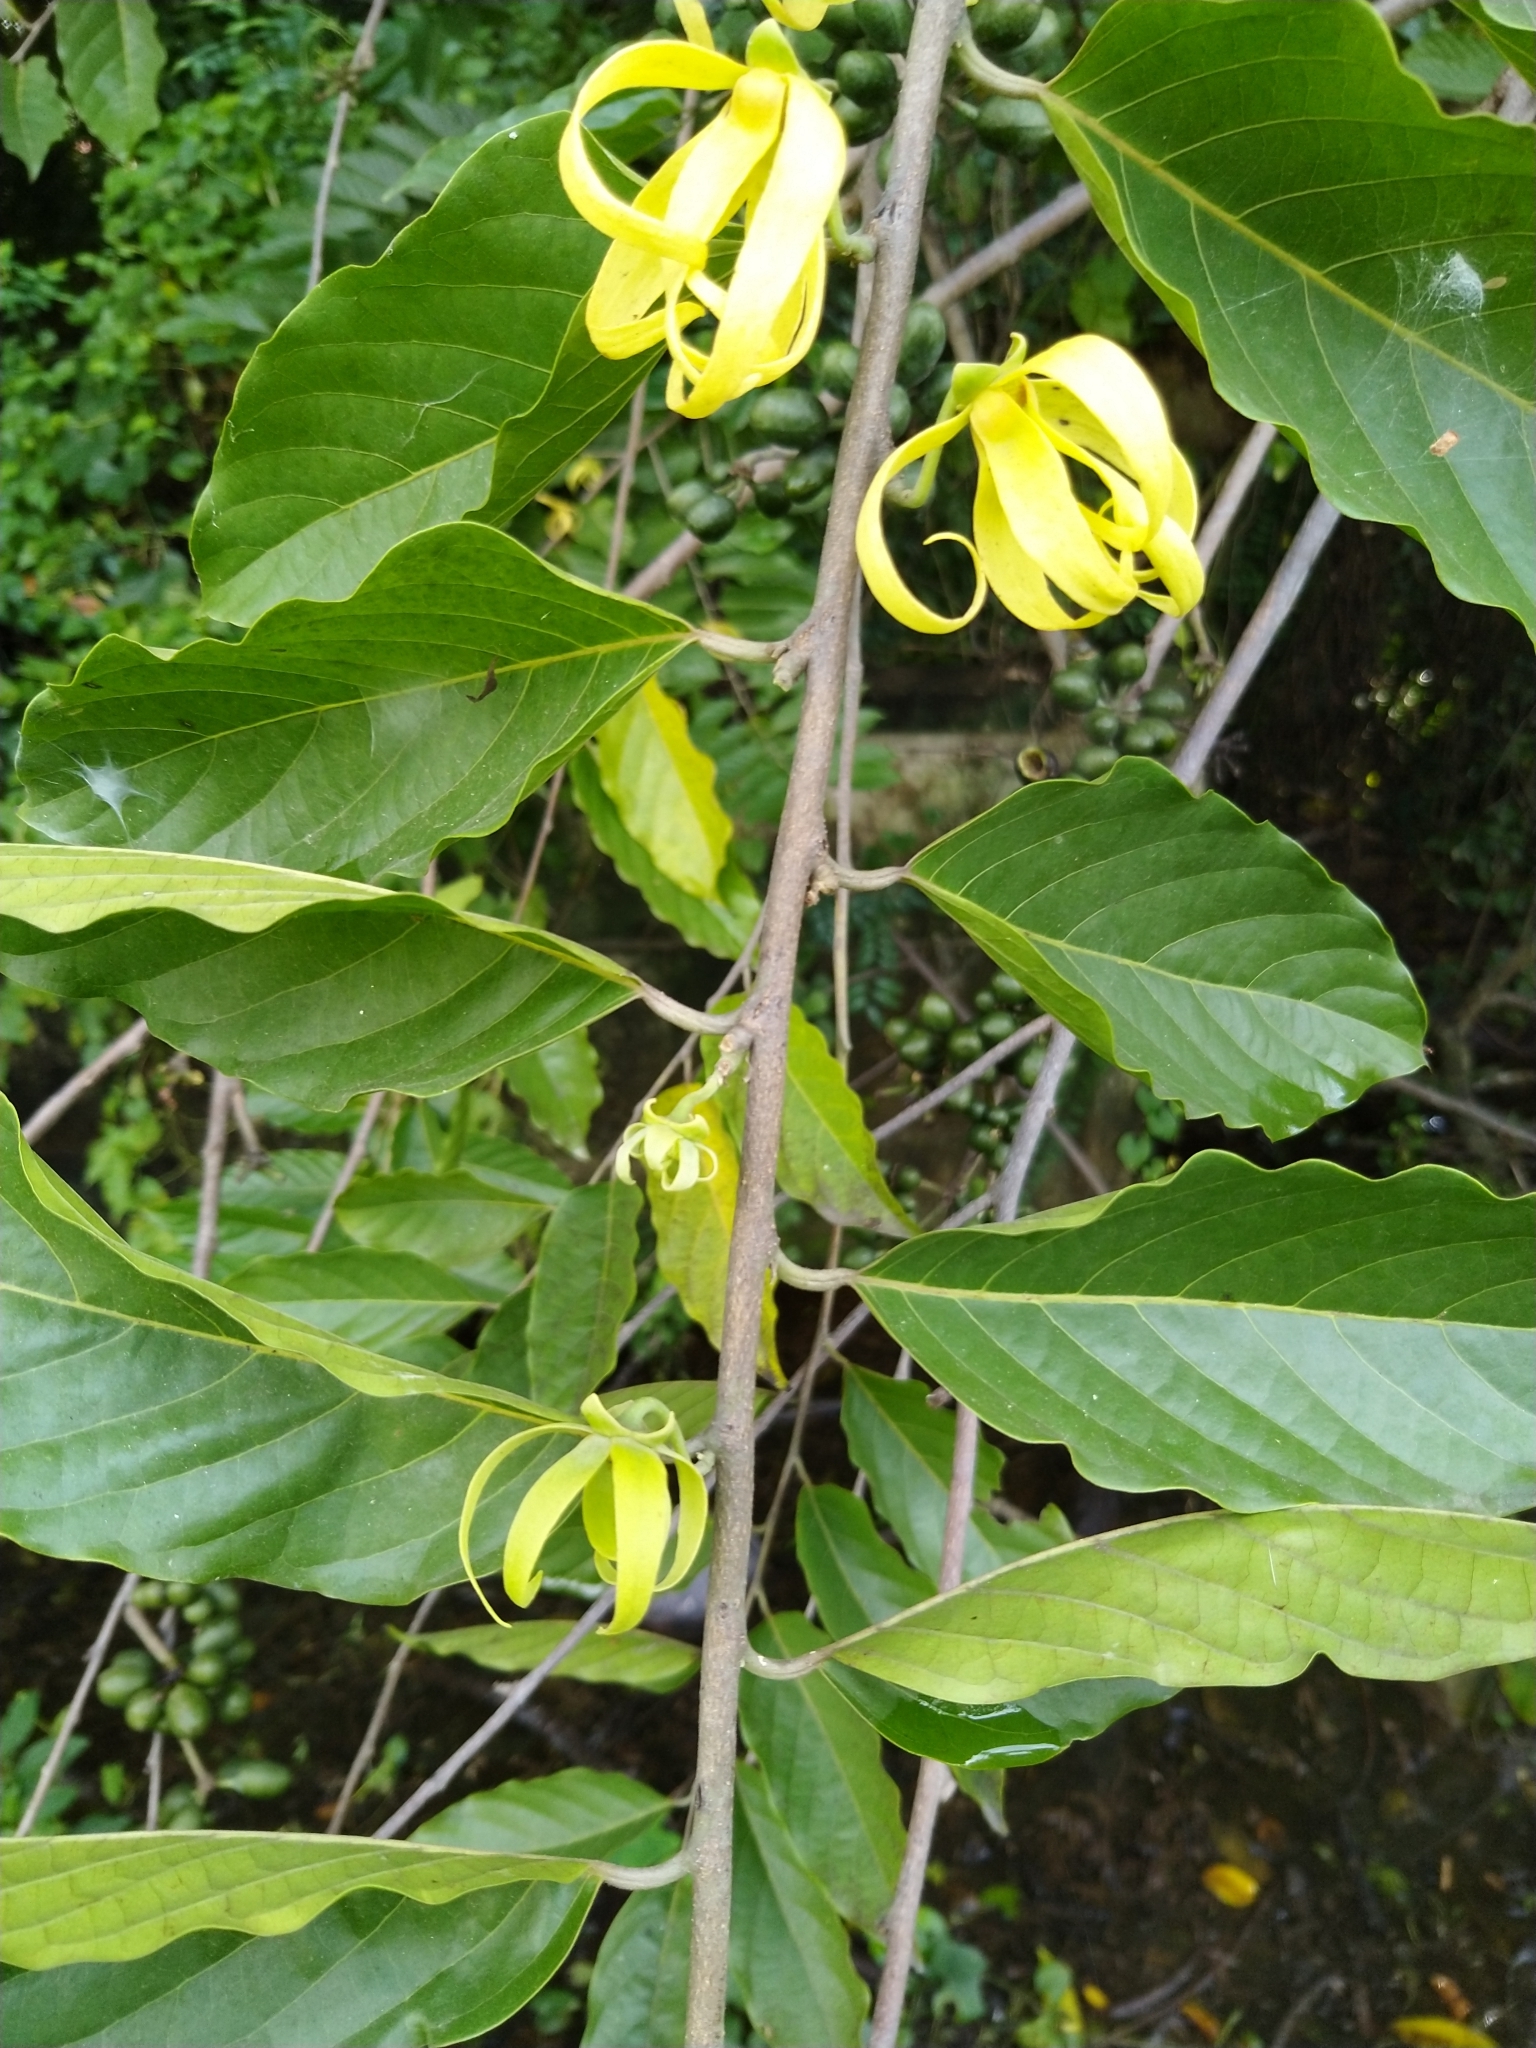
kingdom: Plantae
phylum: Tracheophyta
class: Magnoliopsida
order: Magnoliales
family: Annonaceae
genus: Cananga
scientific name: Cananga odorata
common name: Cananga tree
